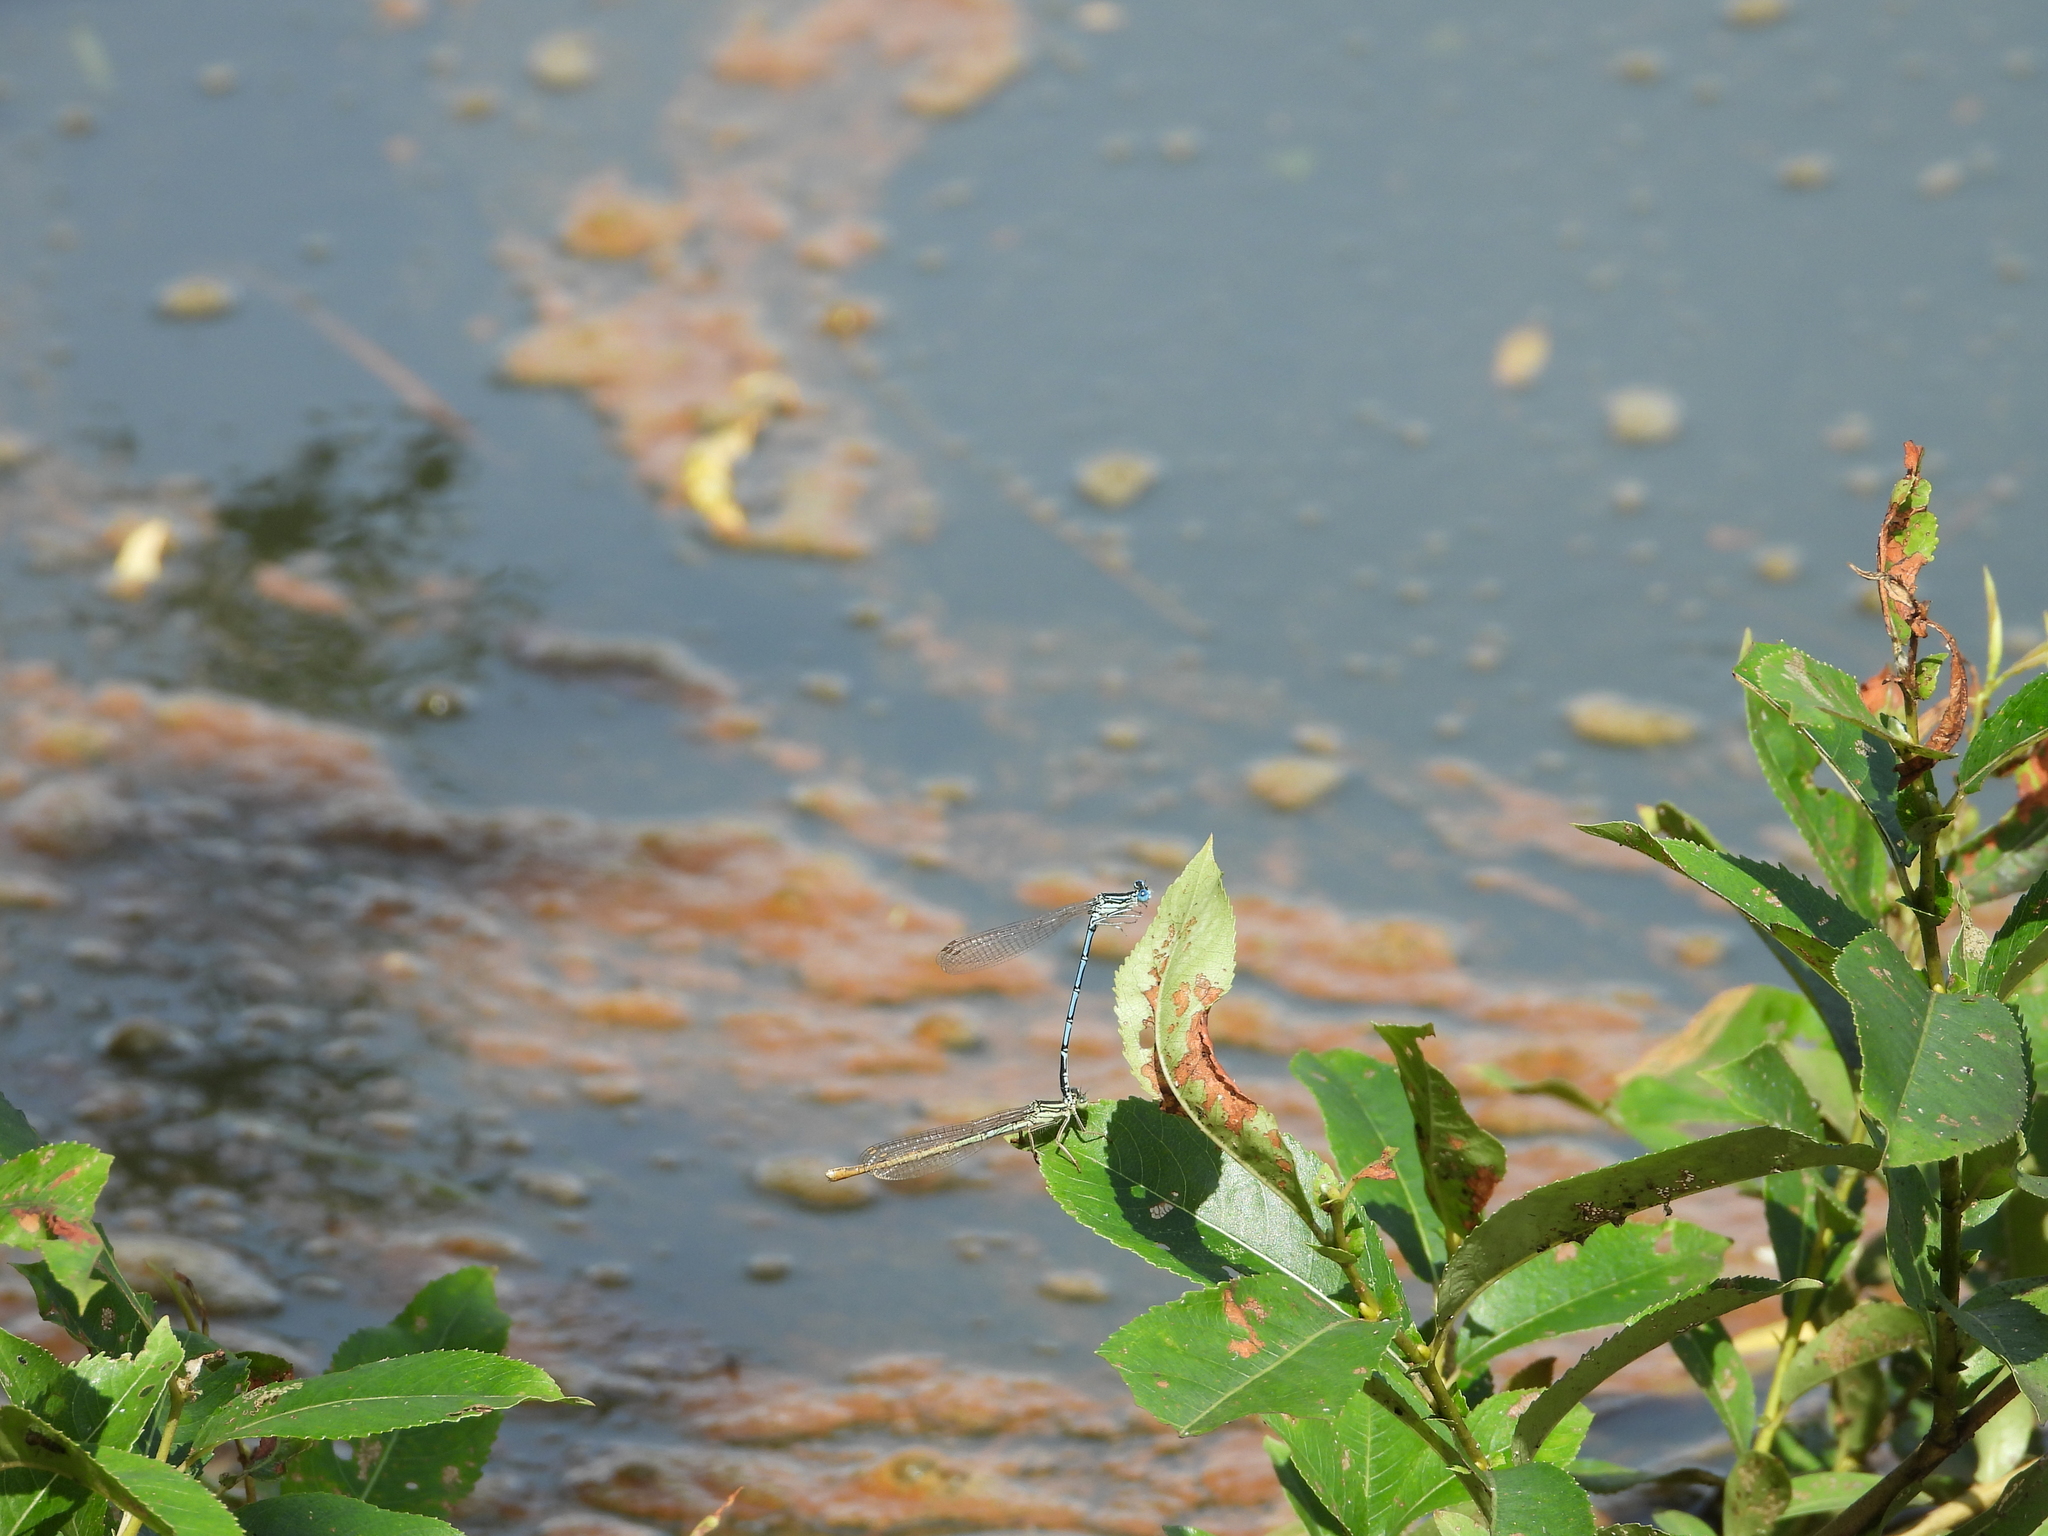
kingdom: Animalia
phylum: Arthropoda
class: Insecta
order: Odonata
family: Platycnemididae
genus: Platycnemis
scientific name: Platycnemis pennipes
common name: White-legged damselfly
